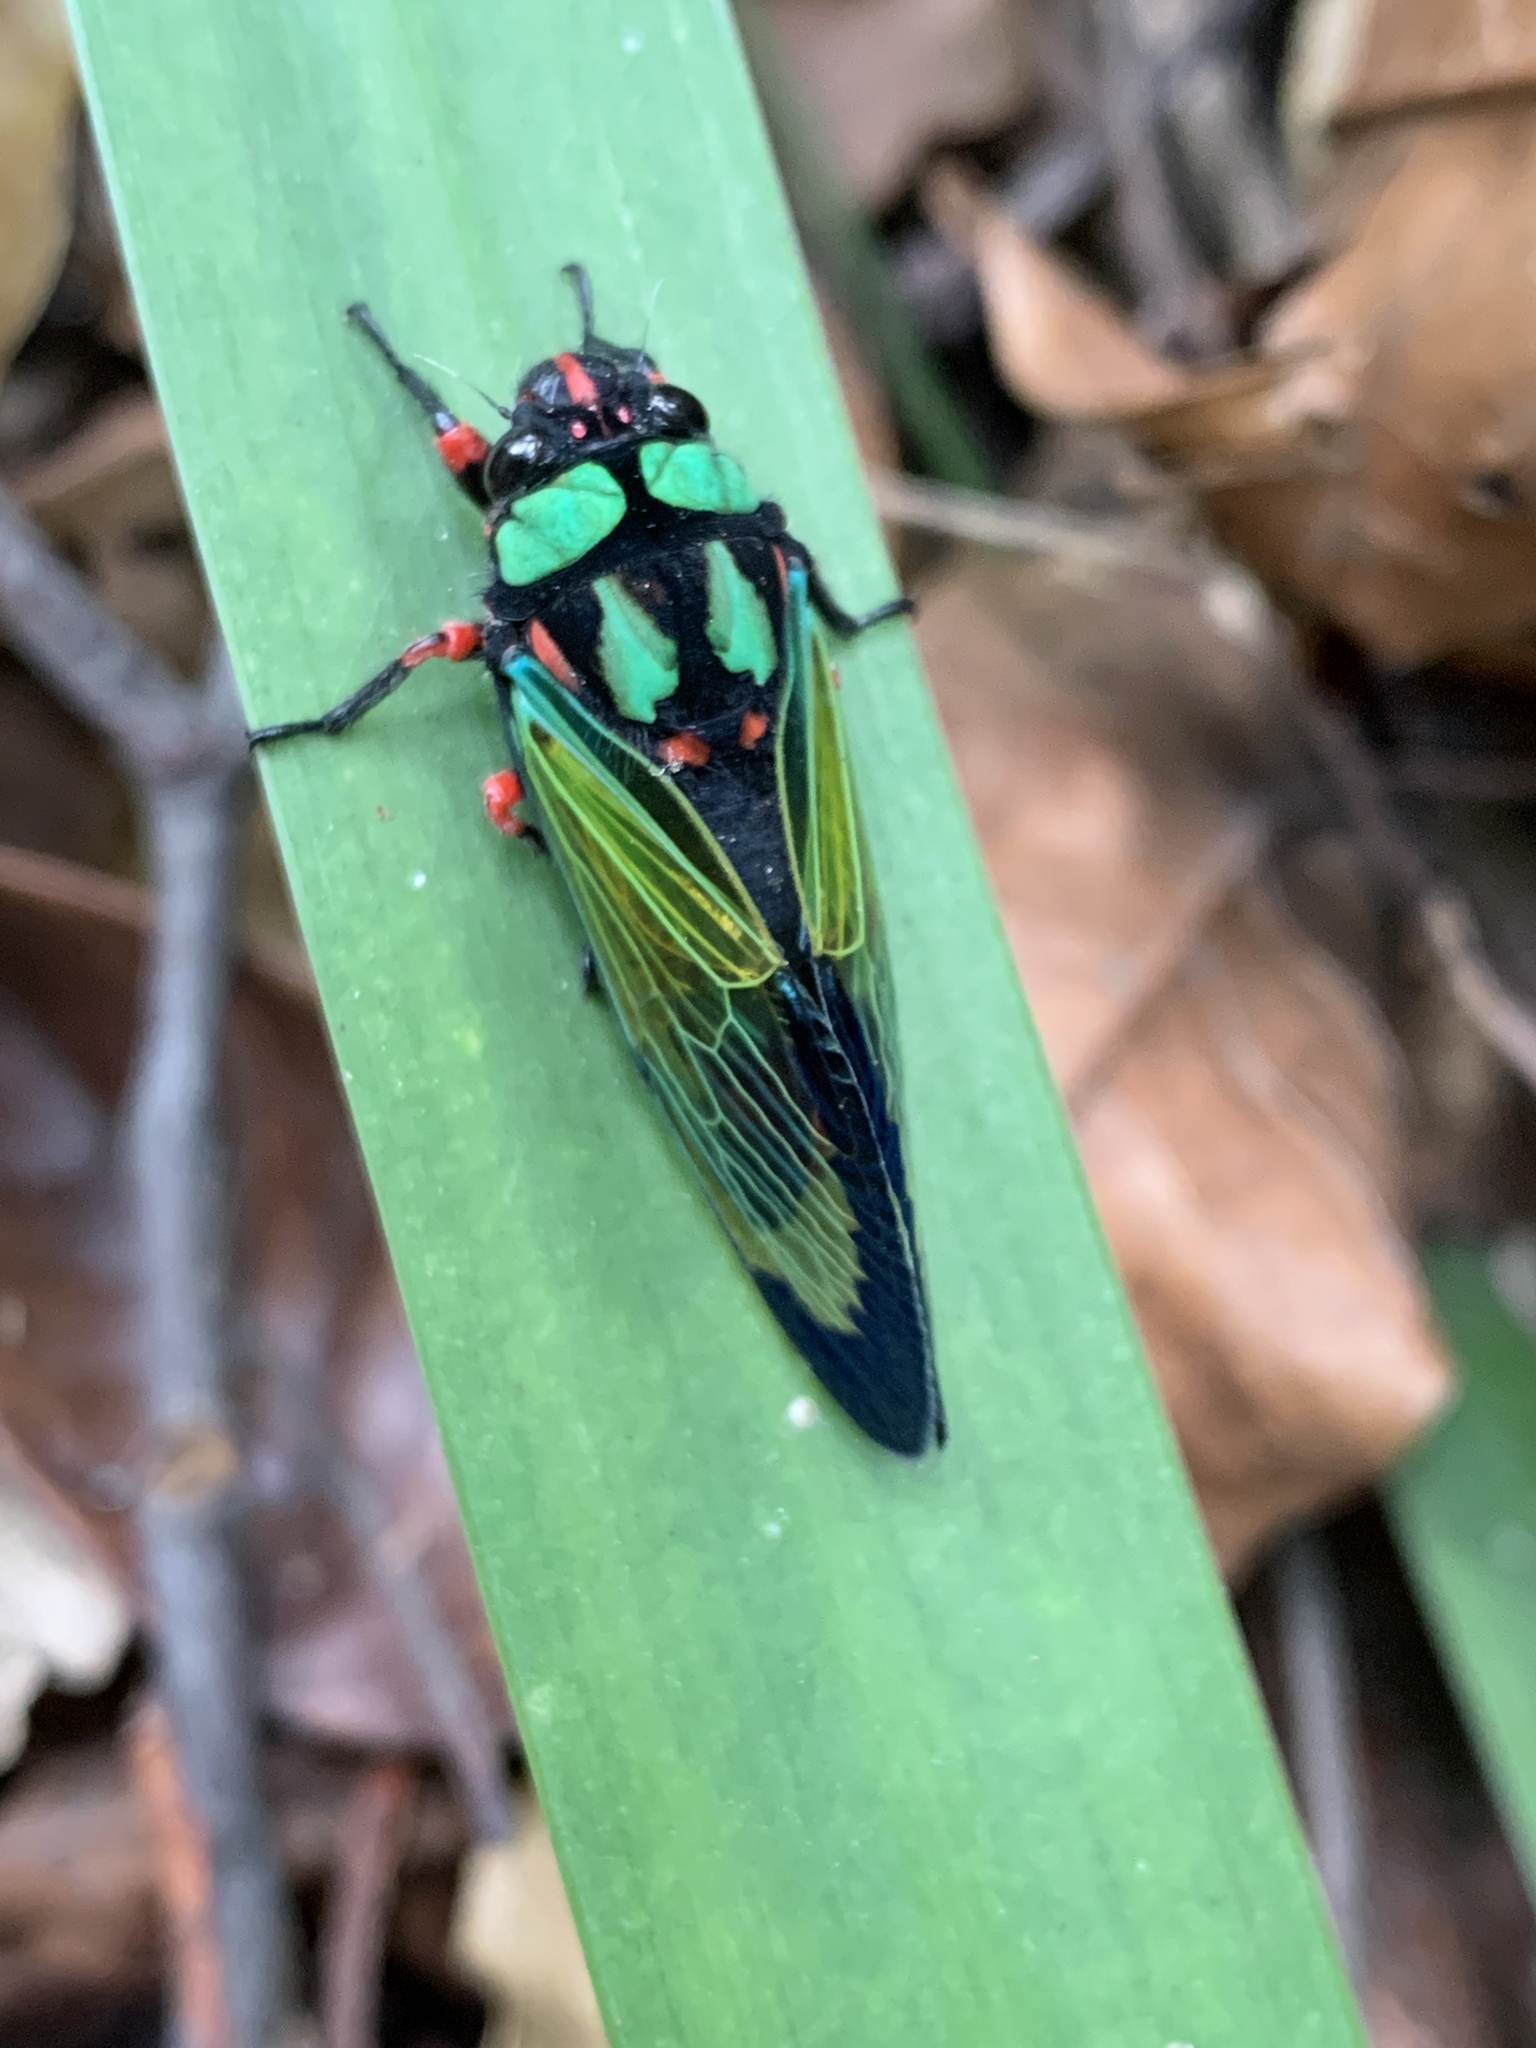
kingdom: Animalia
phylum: Arthropoda
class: Insecta
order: Hemiptera
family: Cicadidae
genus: Carineta
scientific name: Carineta diardi
